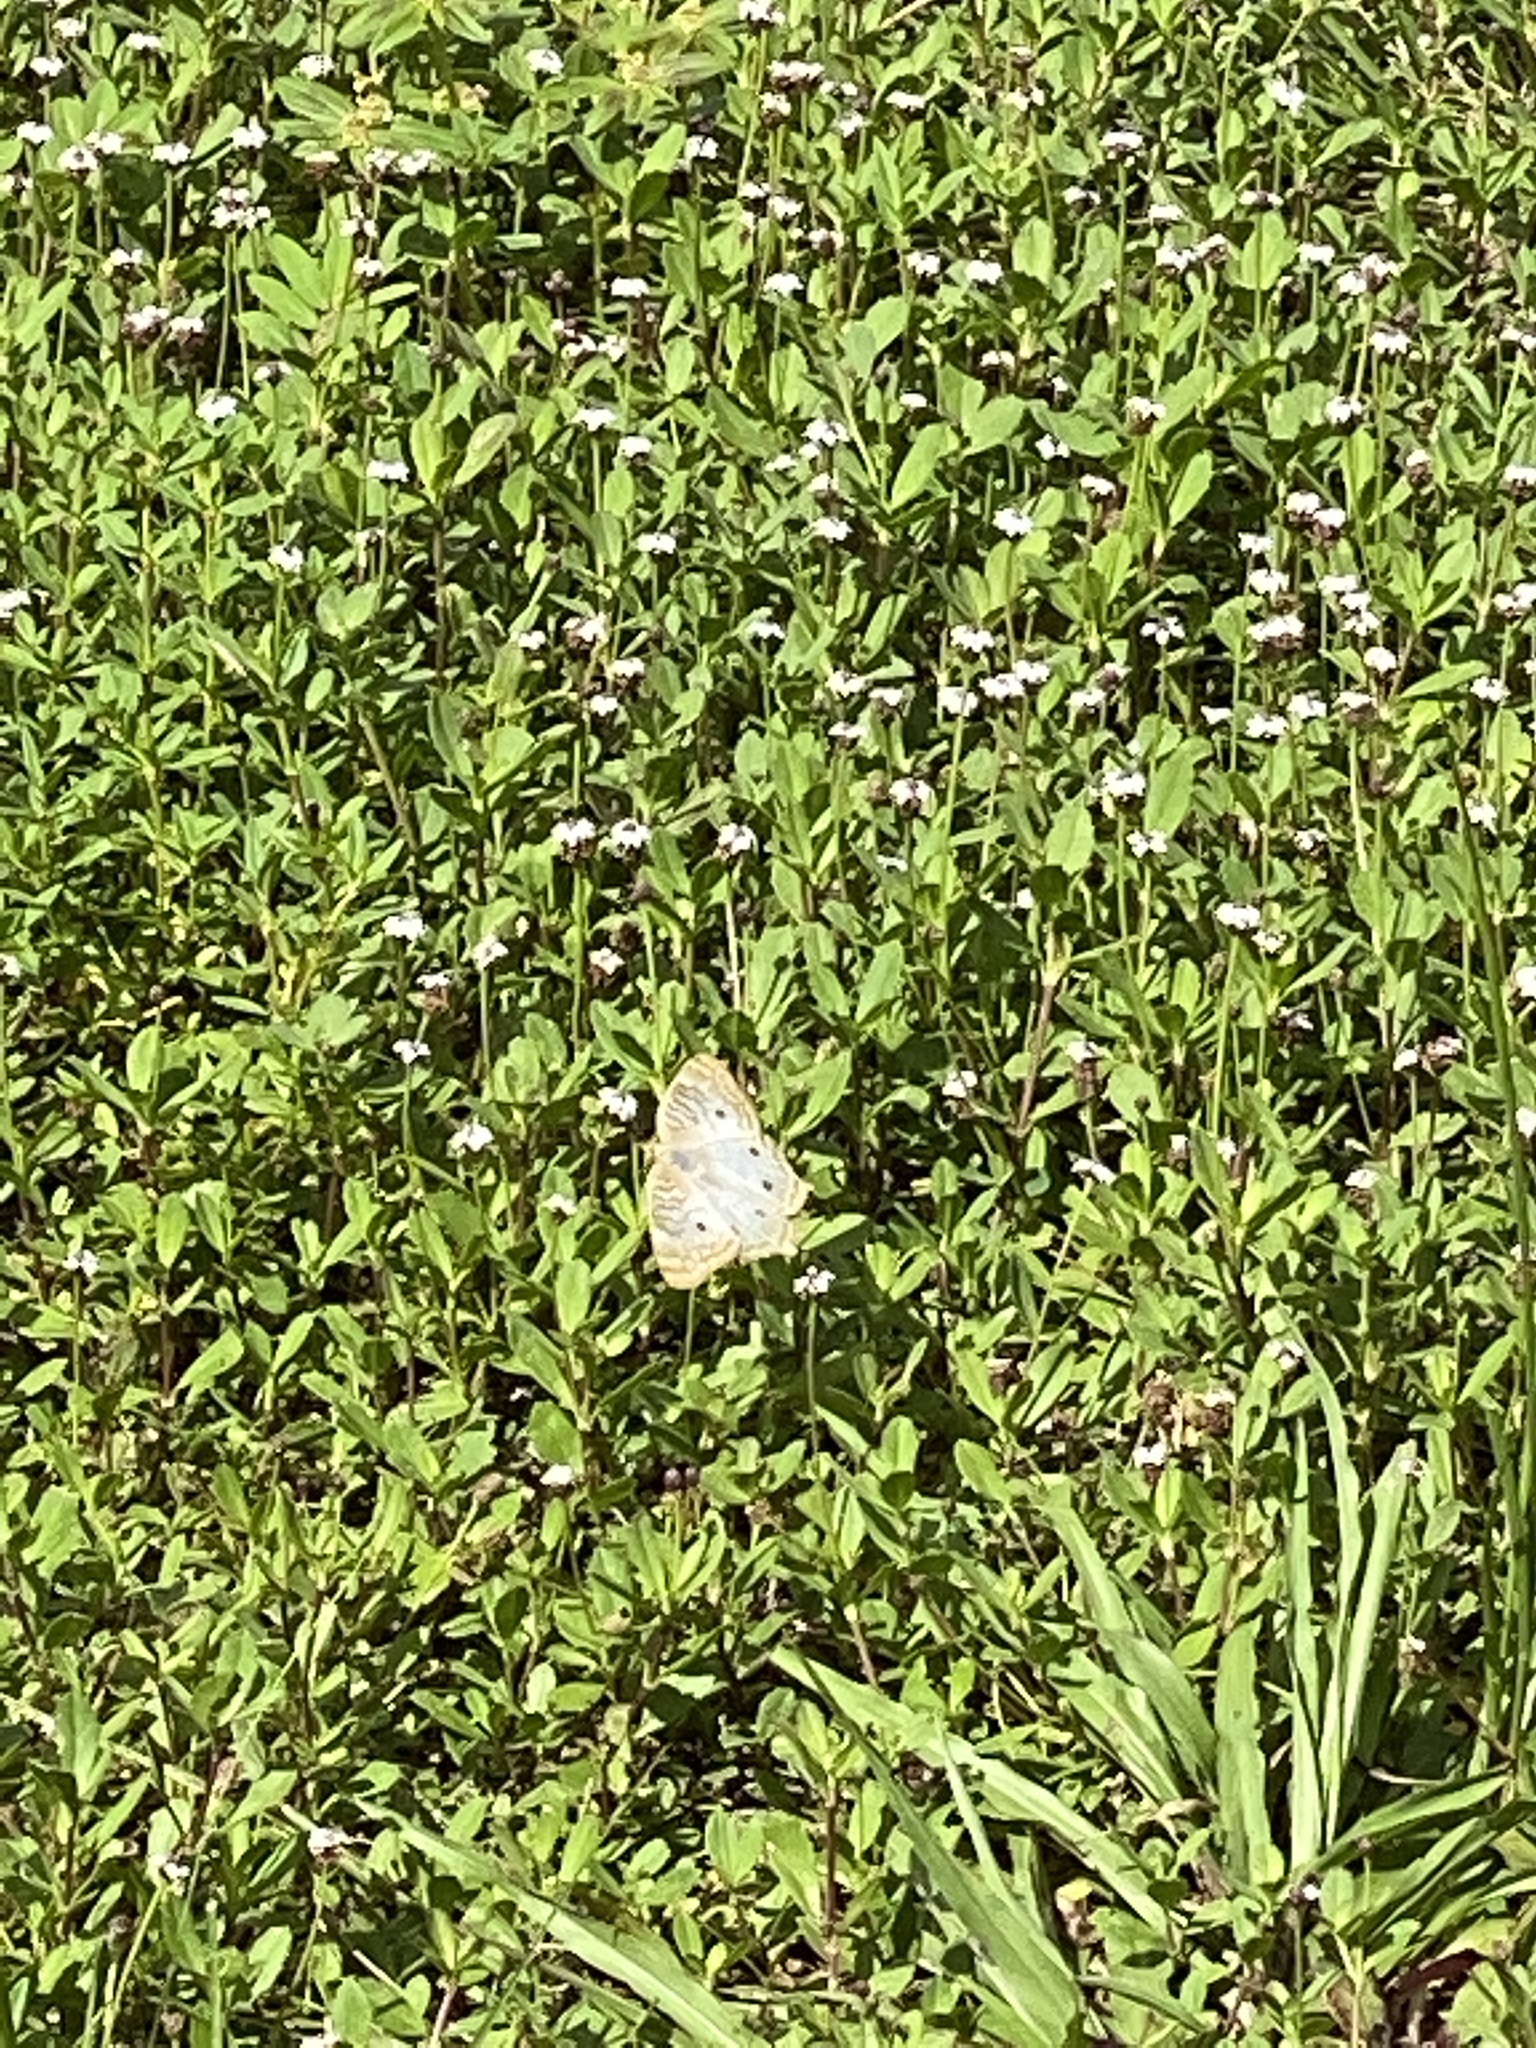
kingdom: Animalia
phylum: Arthropoda
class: Insecta
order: Lepidoptera
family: Nymphalidae
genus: Anartia
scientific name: Anartia jatrophae
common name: White peacock
